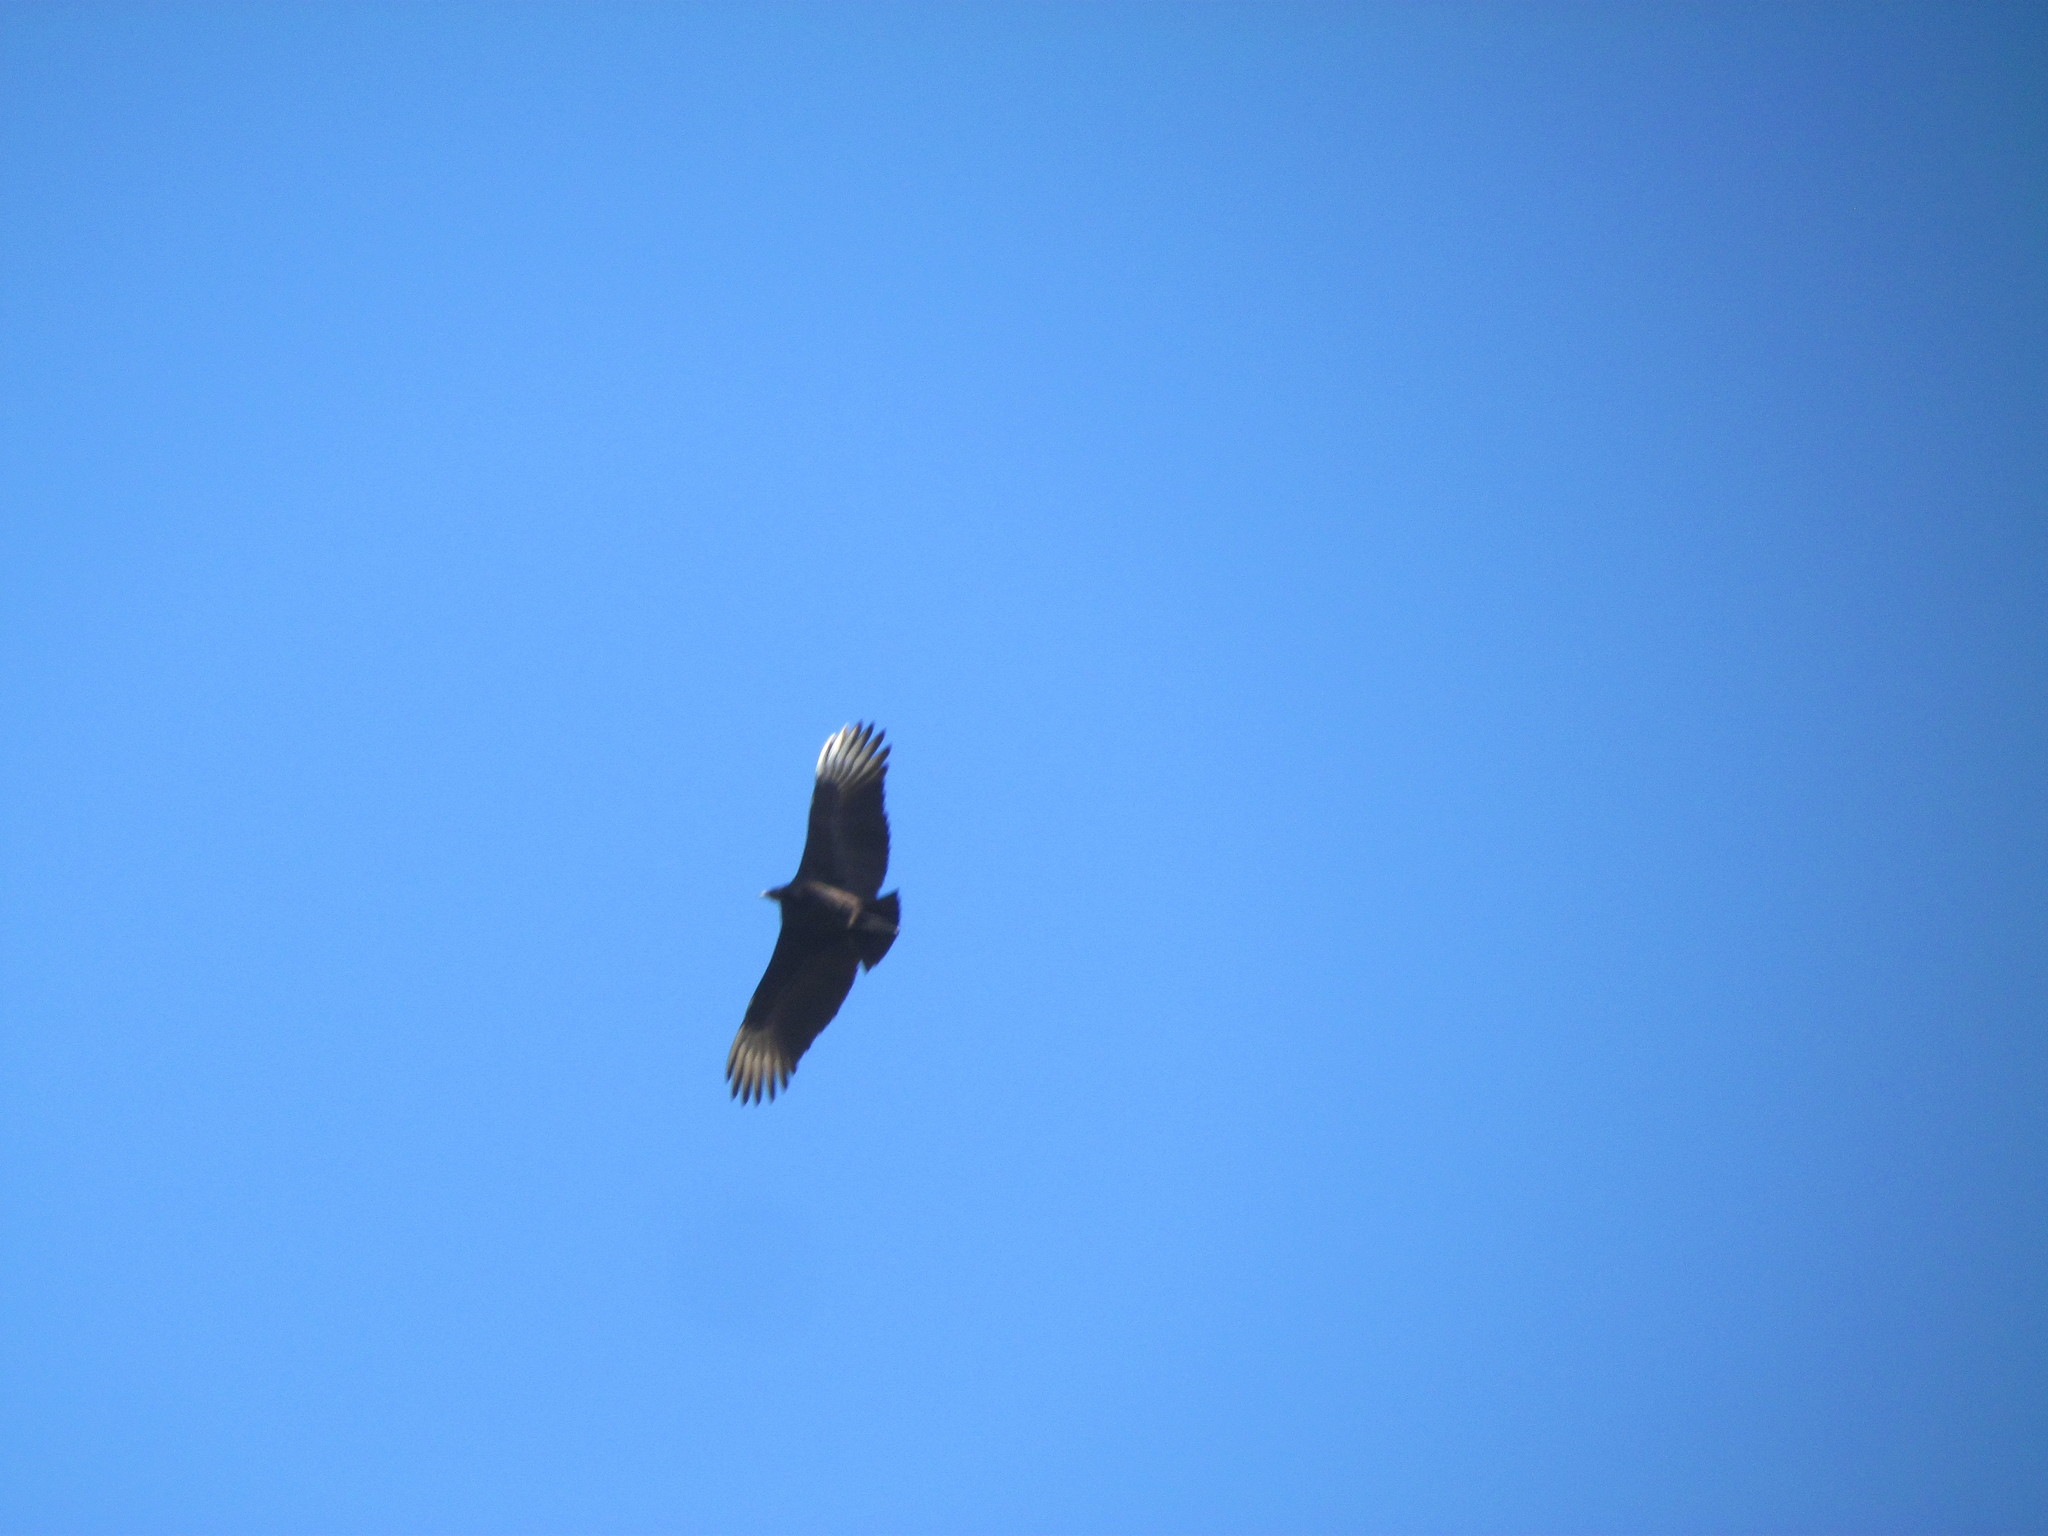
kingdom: Animalia
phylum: Chordata
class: Aves
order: Accipitriformes
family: Cathartidae
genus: Coragyps
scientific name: Coragyps atratus
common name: Black vulture
